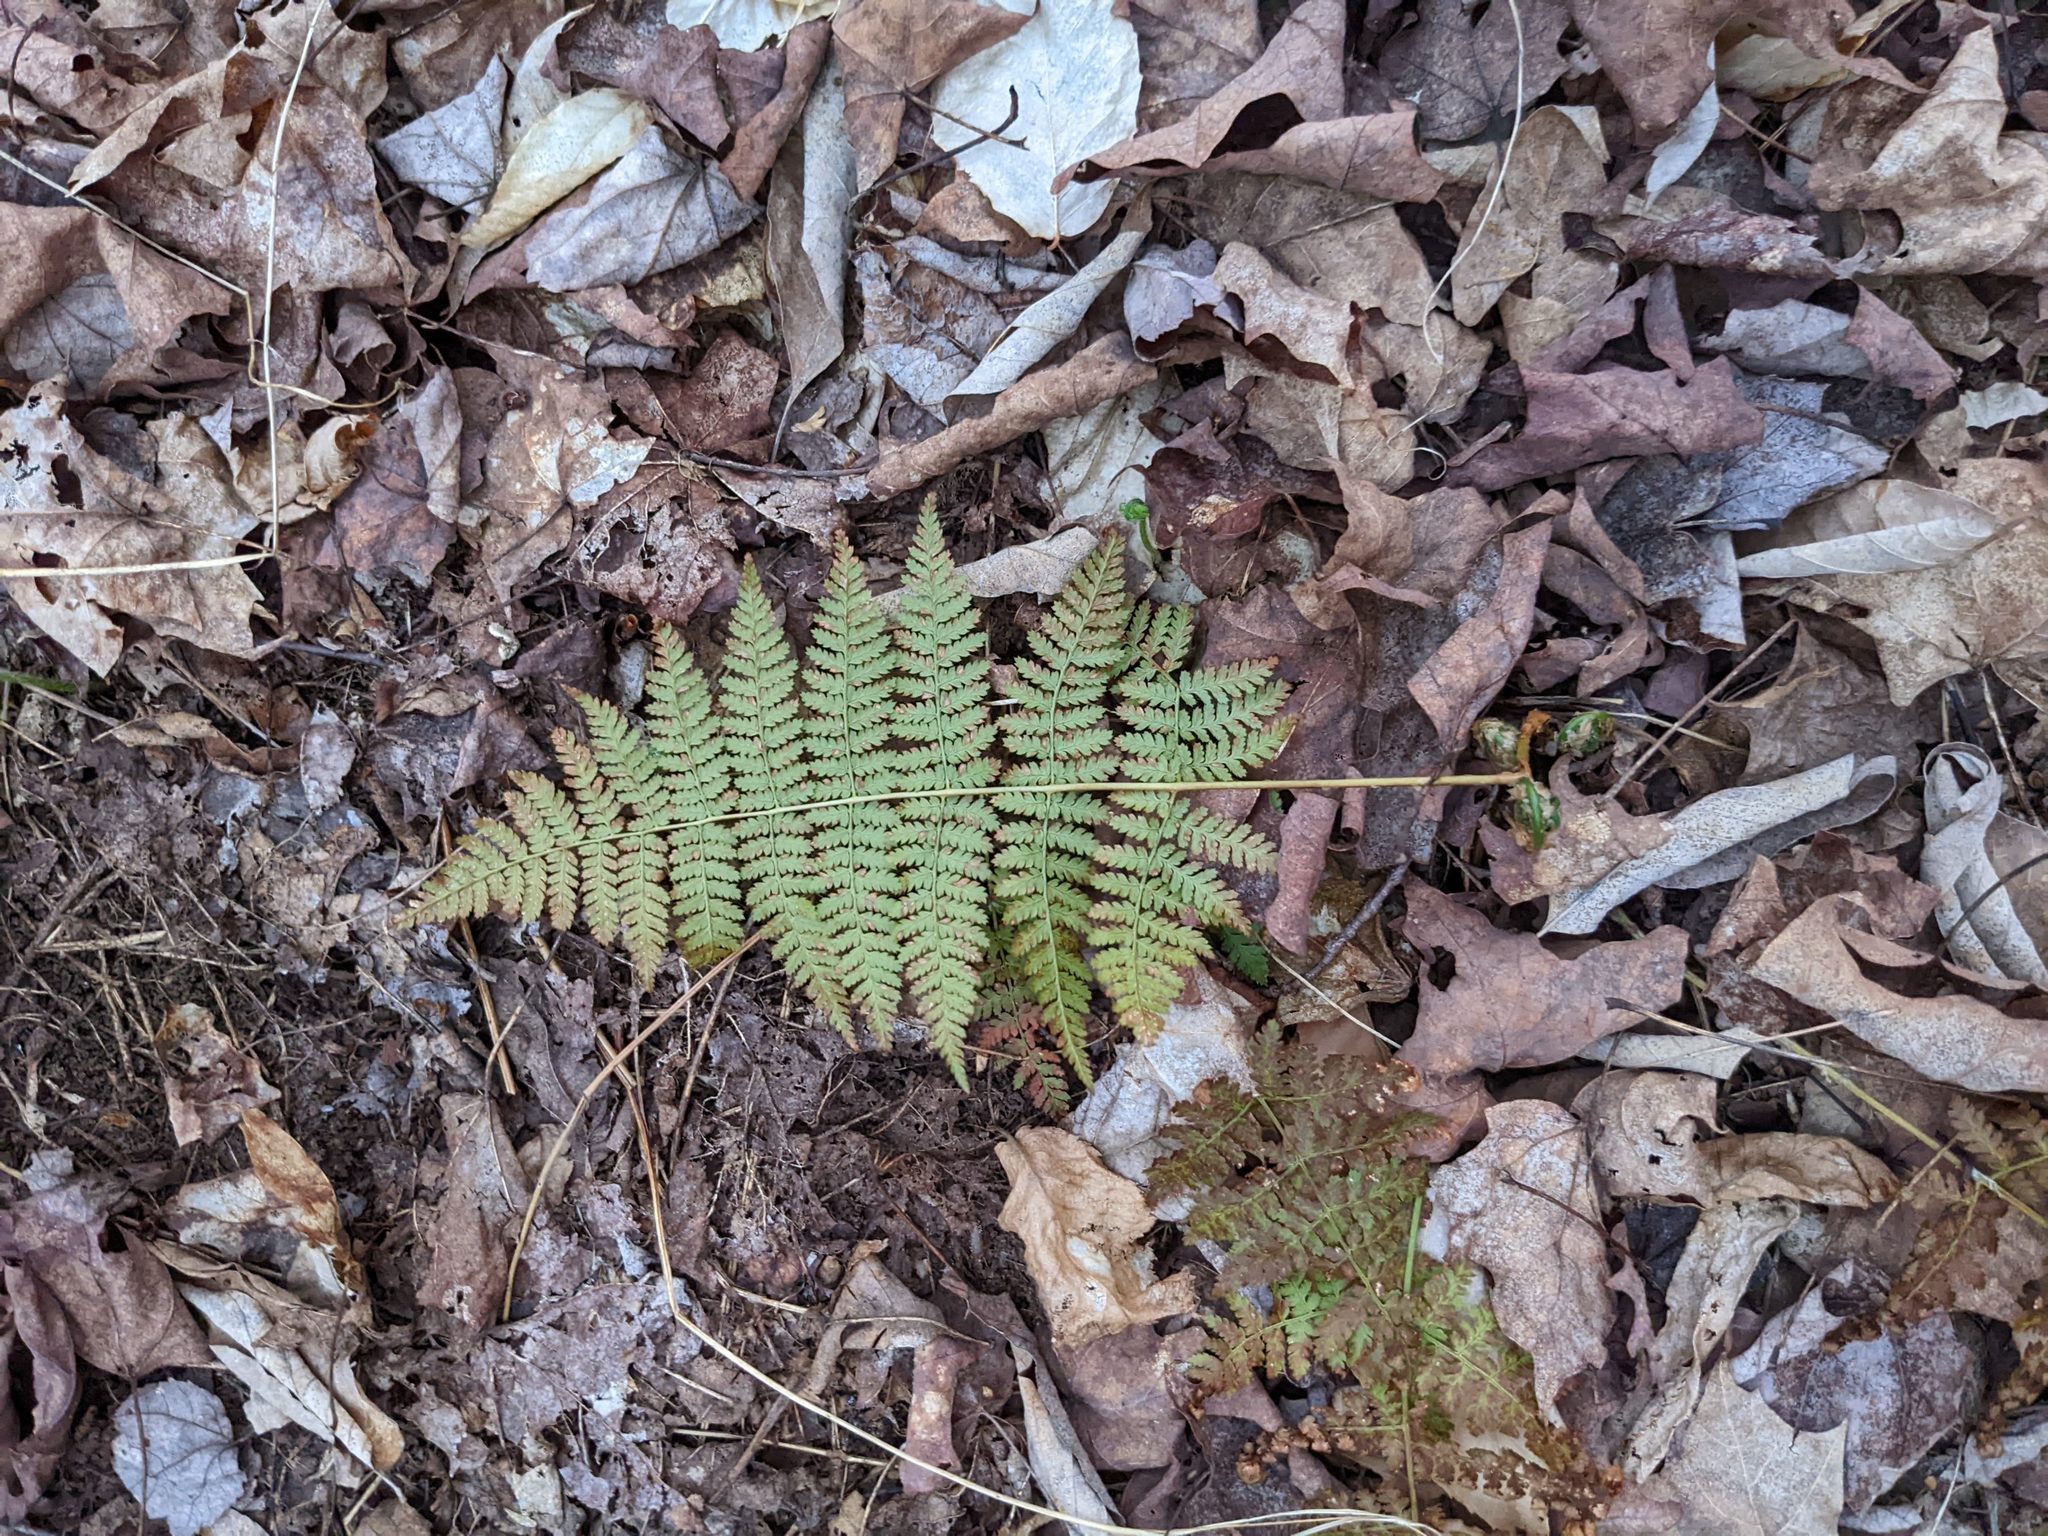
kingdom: Plantae
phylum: Tracheophyta
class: Polypodiopsida
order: Polypodiales
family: Dryopteridaceae
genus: Dryopteris
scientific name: Dryopteris intermedia
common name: Evergreen wood fern
